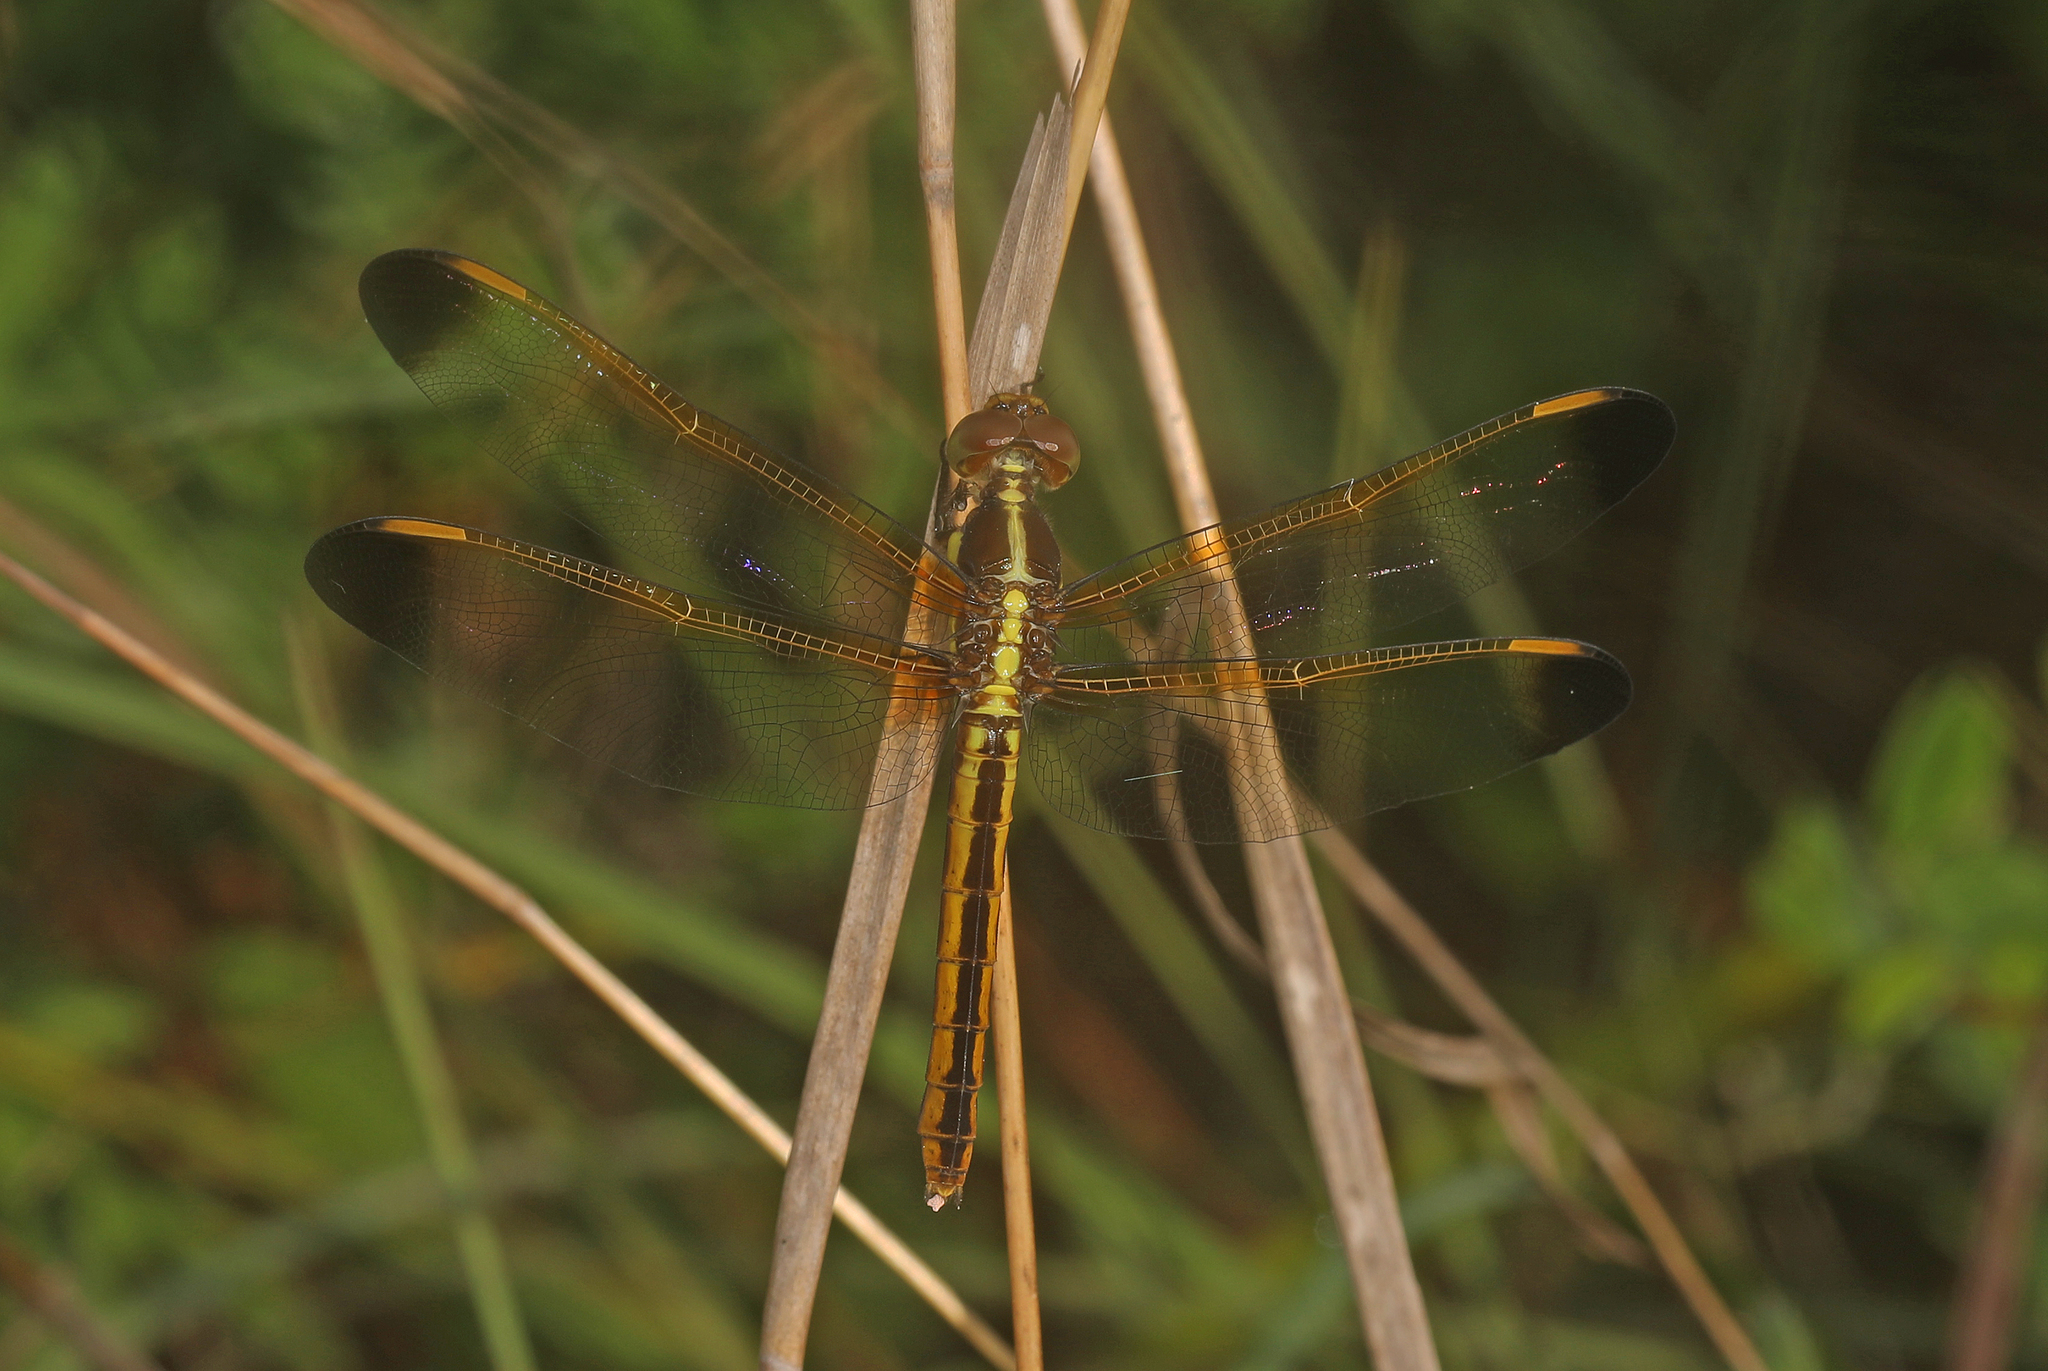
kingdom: Animalia
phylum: Arthropoda
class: Insecta
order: Odonata
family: Libellulidae
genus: Libellula
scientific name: Libellula flavida
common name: Yellow-sided skimmer
